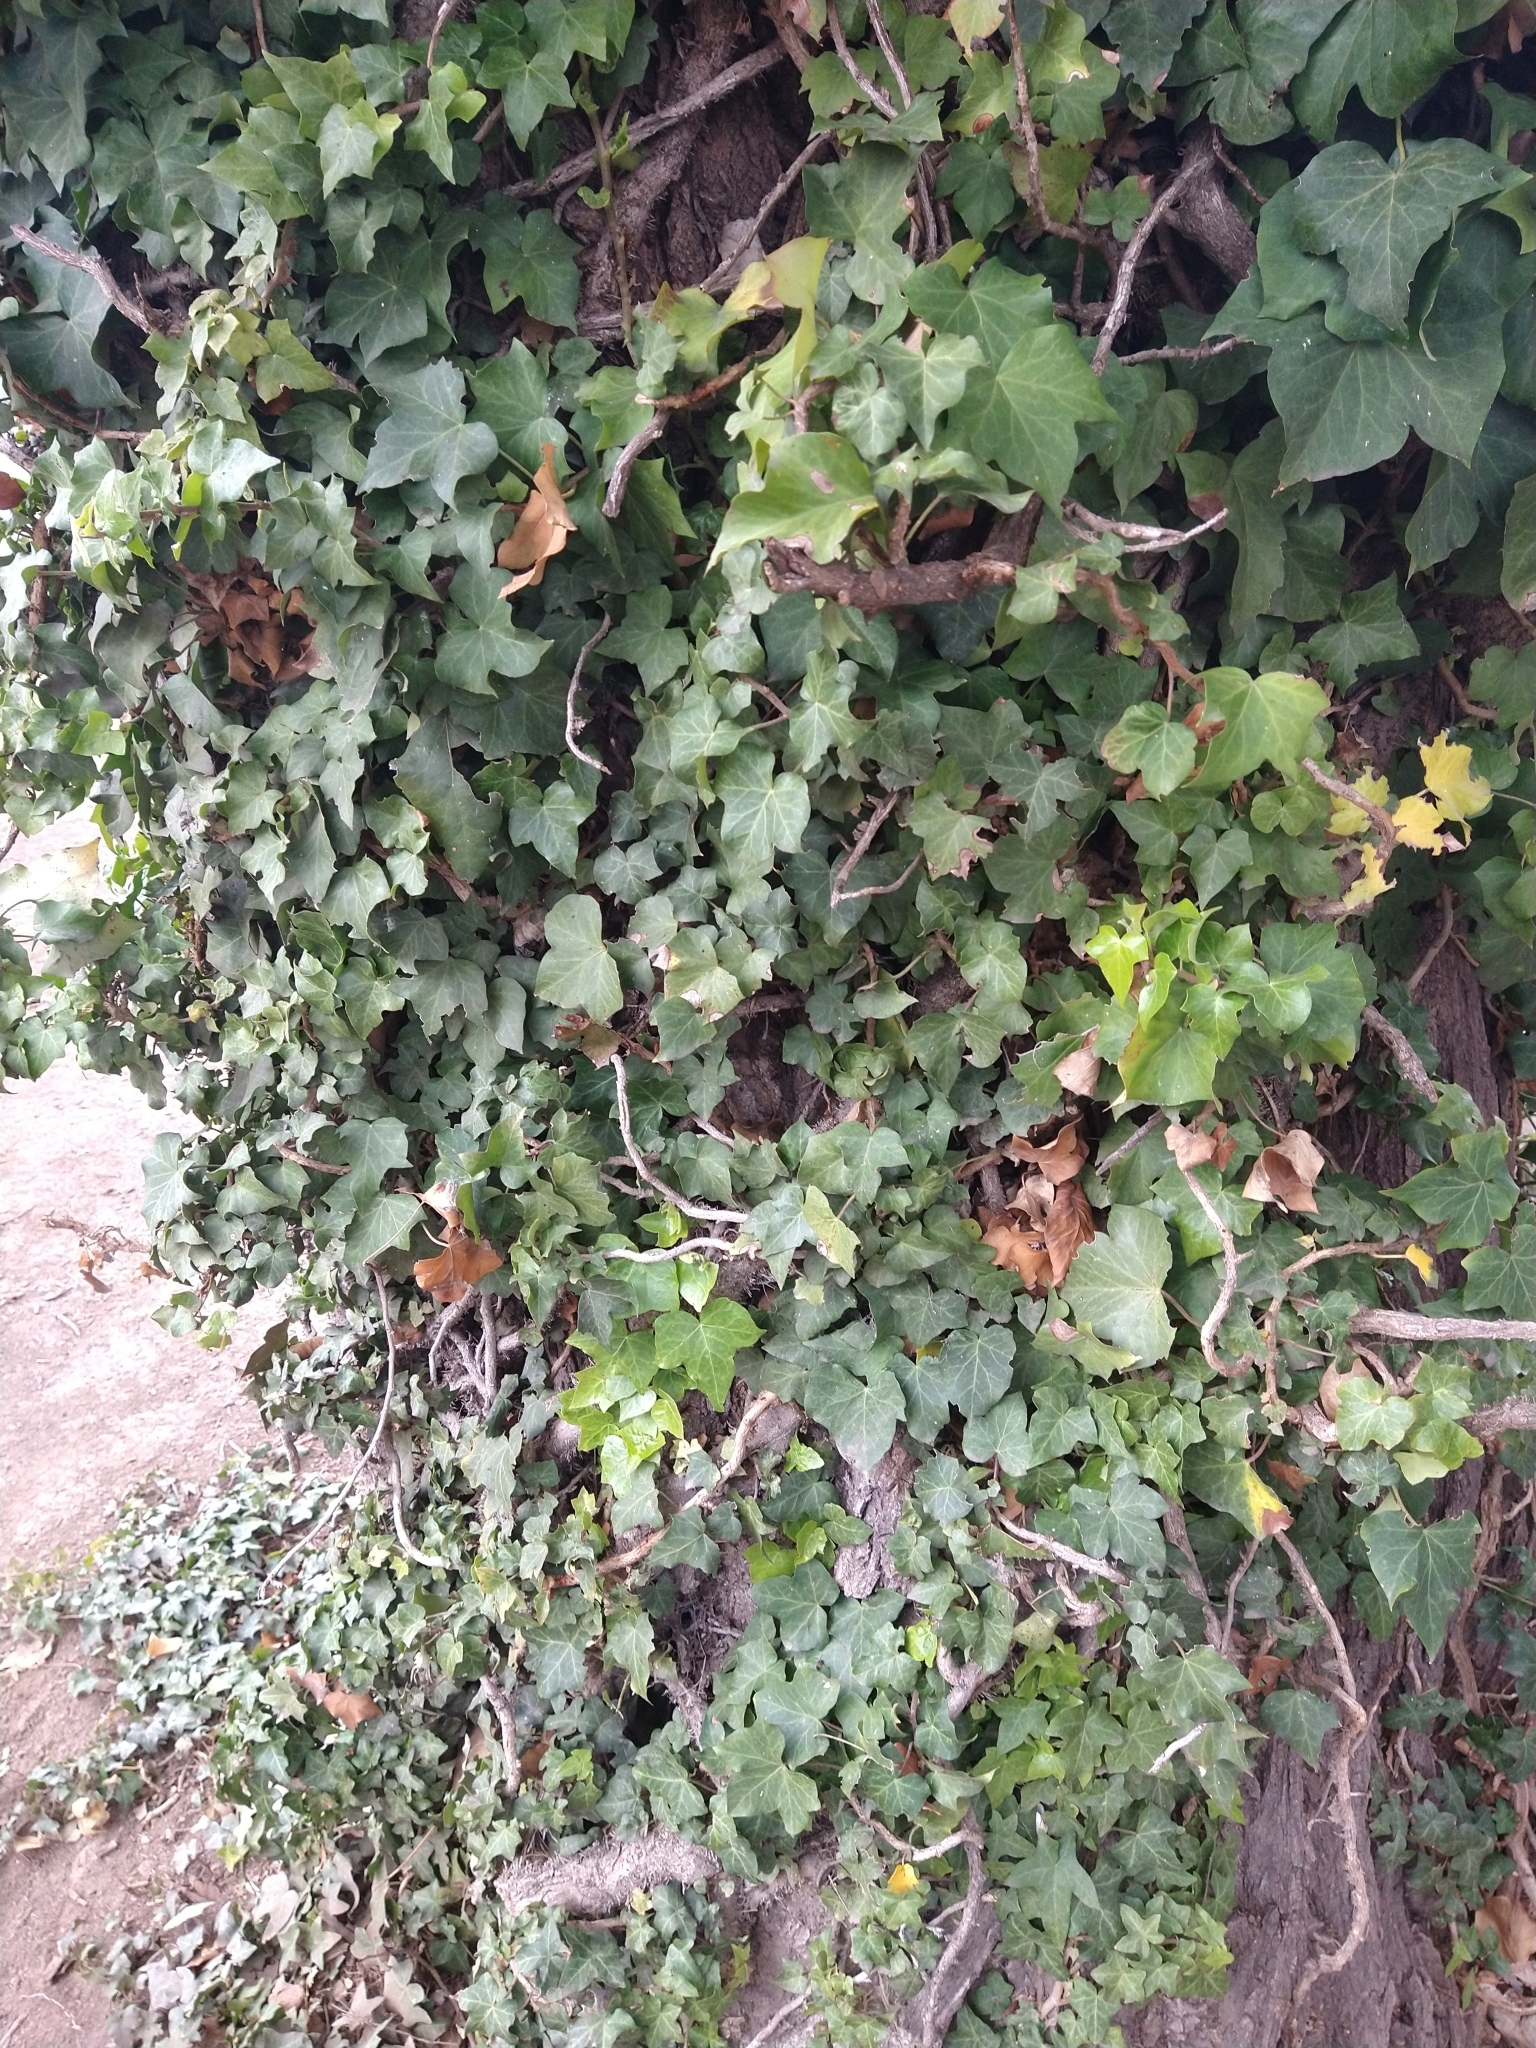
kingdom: Plantae
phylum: Tracheophyta
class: Magnoliopsida
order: Apiales
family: Araliaceae
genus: Hedera
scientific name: Hedera helix
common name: Ivy
